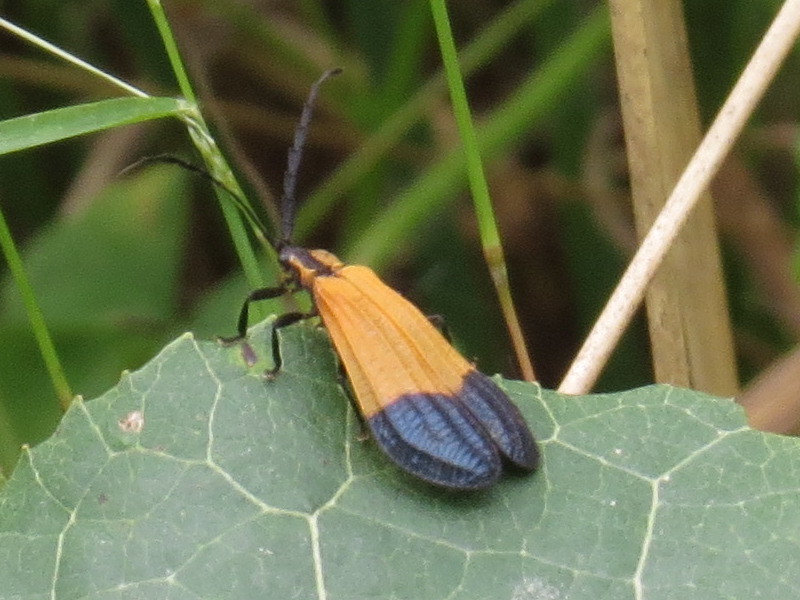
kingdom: Animalia
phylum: Arthropoda
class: Insecta
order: Coleoptera
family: Lycidae
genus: Calopteron
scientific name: Calopteron terminale
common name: End band net-winged beetle
